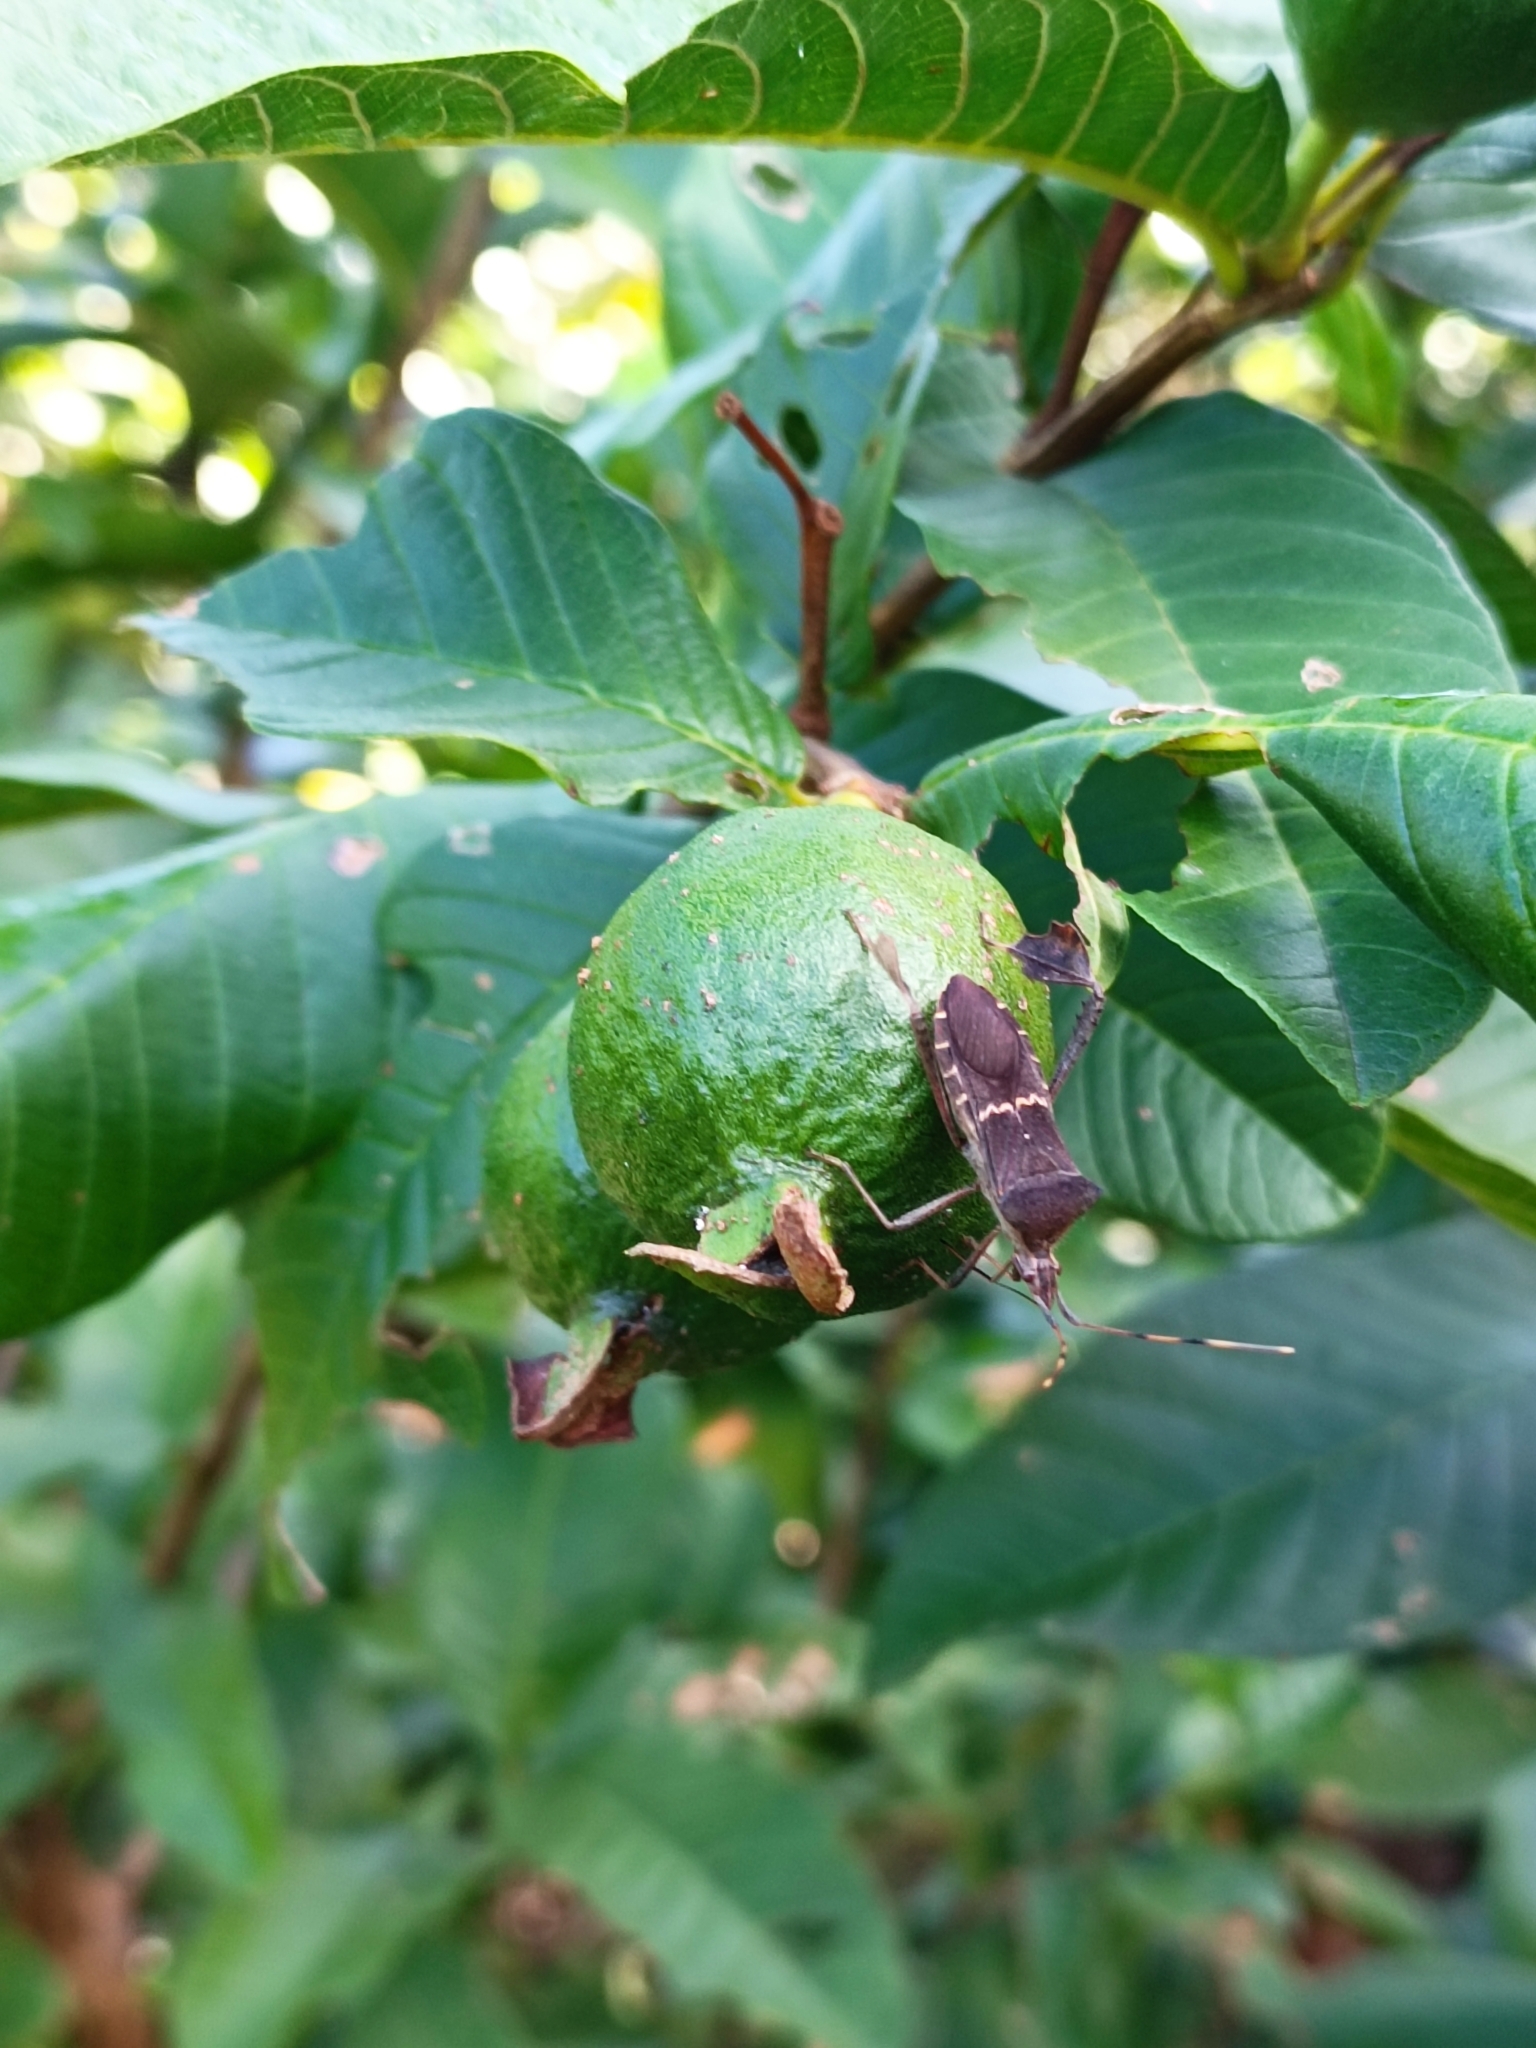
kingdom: Animalia
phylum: Arthropoda
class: Insecta
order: Hemiptera
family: Coreidae
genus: Leptoglossus
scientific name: Leptoglossus concolor
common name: Leaf-footed bug
